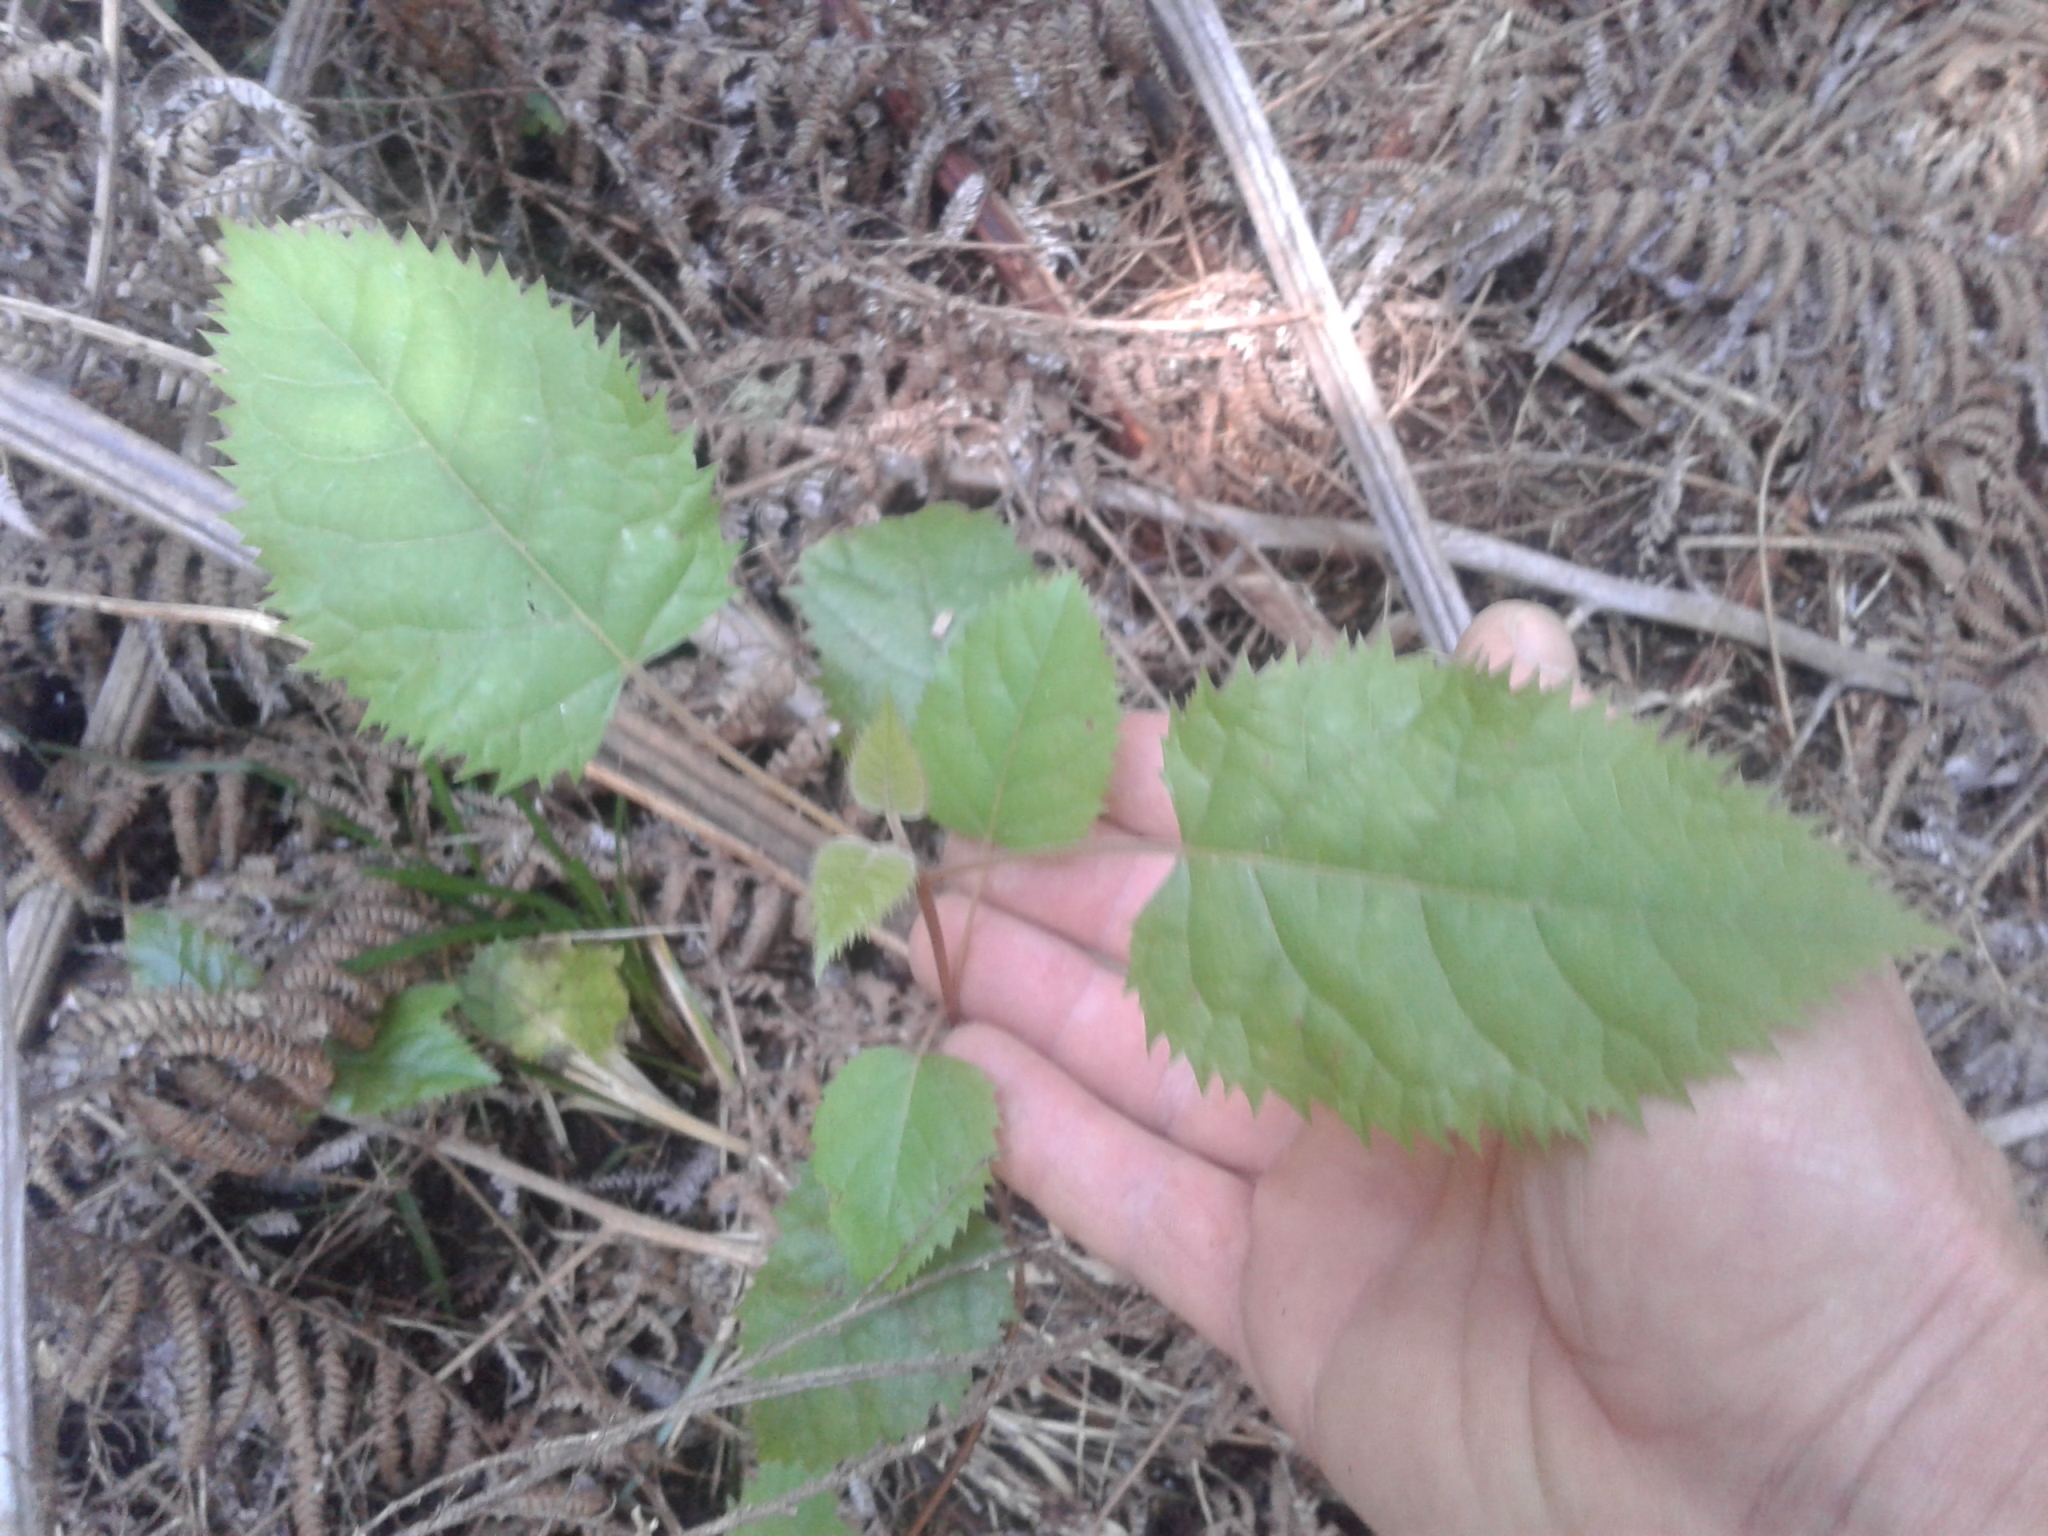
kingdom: Plantae
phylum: Tracheophyta
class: Magnoliopsida
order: Oxalidales
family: Elaeocarpaceae
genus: Aristotelia
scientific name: Aristotelia serrata
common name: New zealand wineberry
